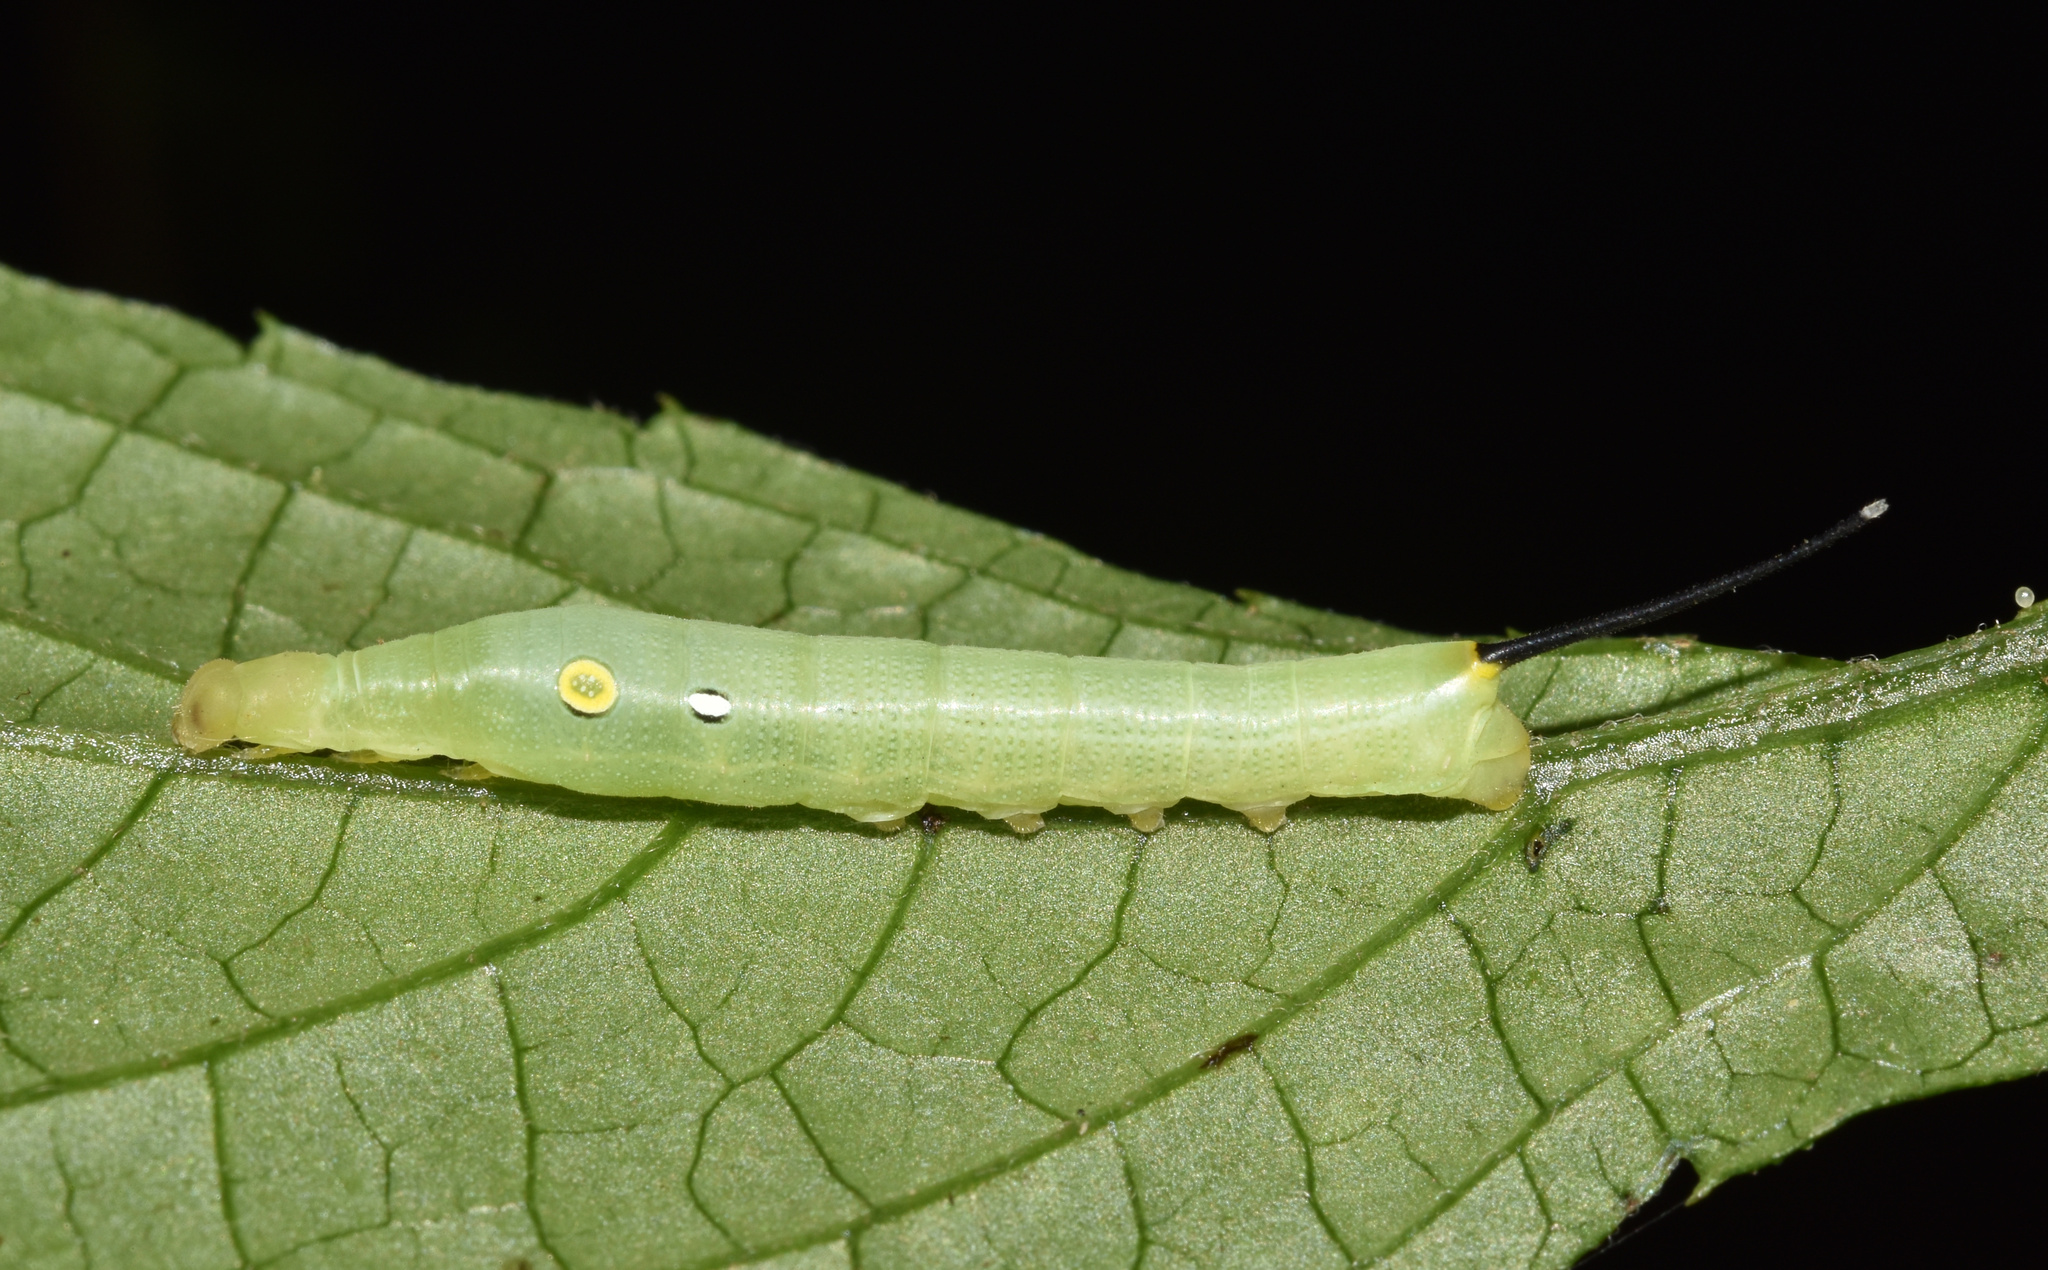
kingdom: Animalia
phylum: Arthropoda
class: Insecta
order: Lepidoptera
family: Sphingidae
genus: Hippotion
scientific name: Hippotion celerio
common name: Silver-striped hawk-moth
